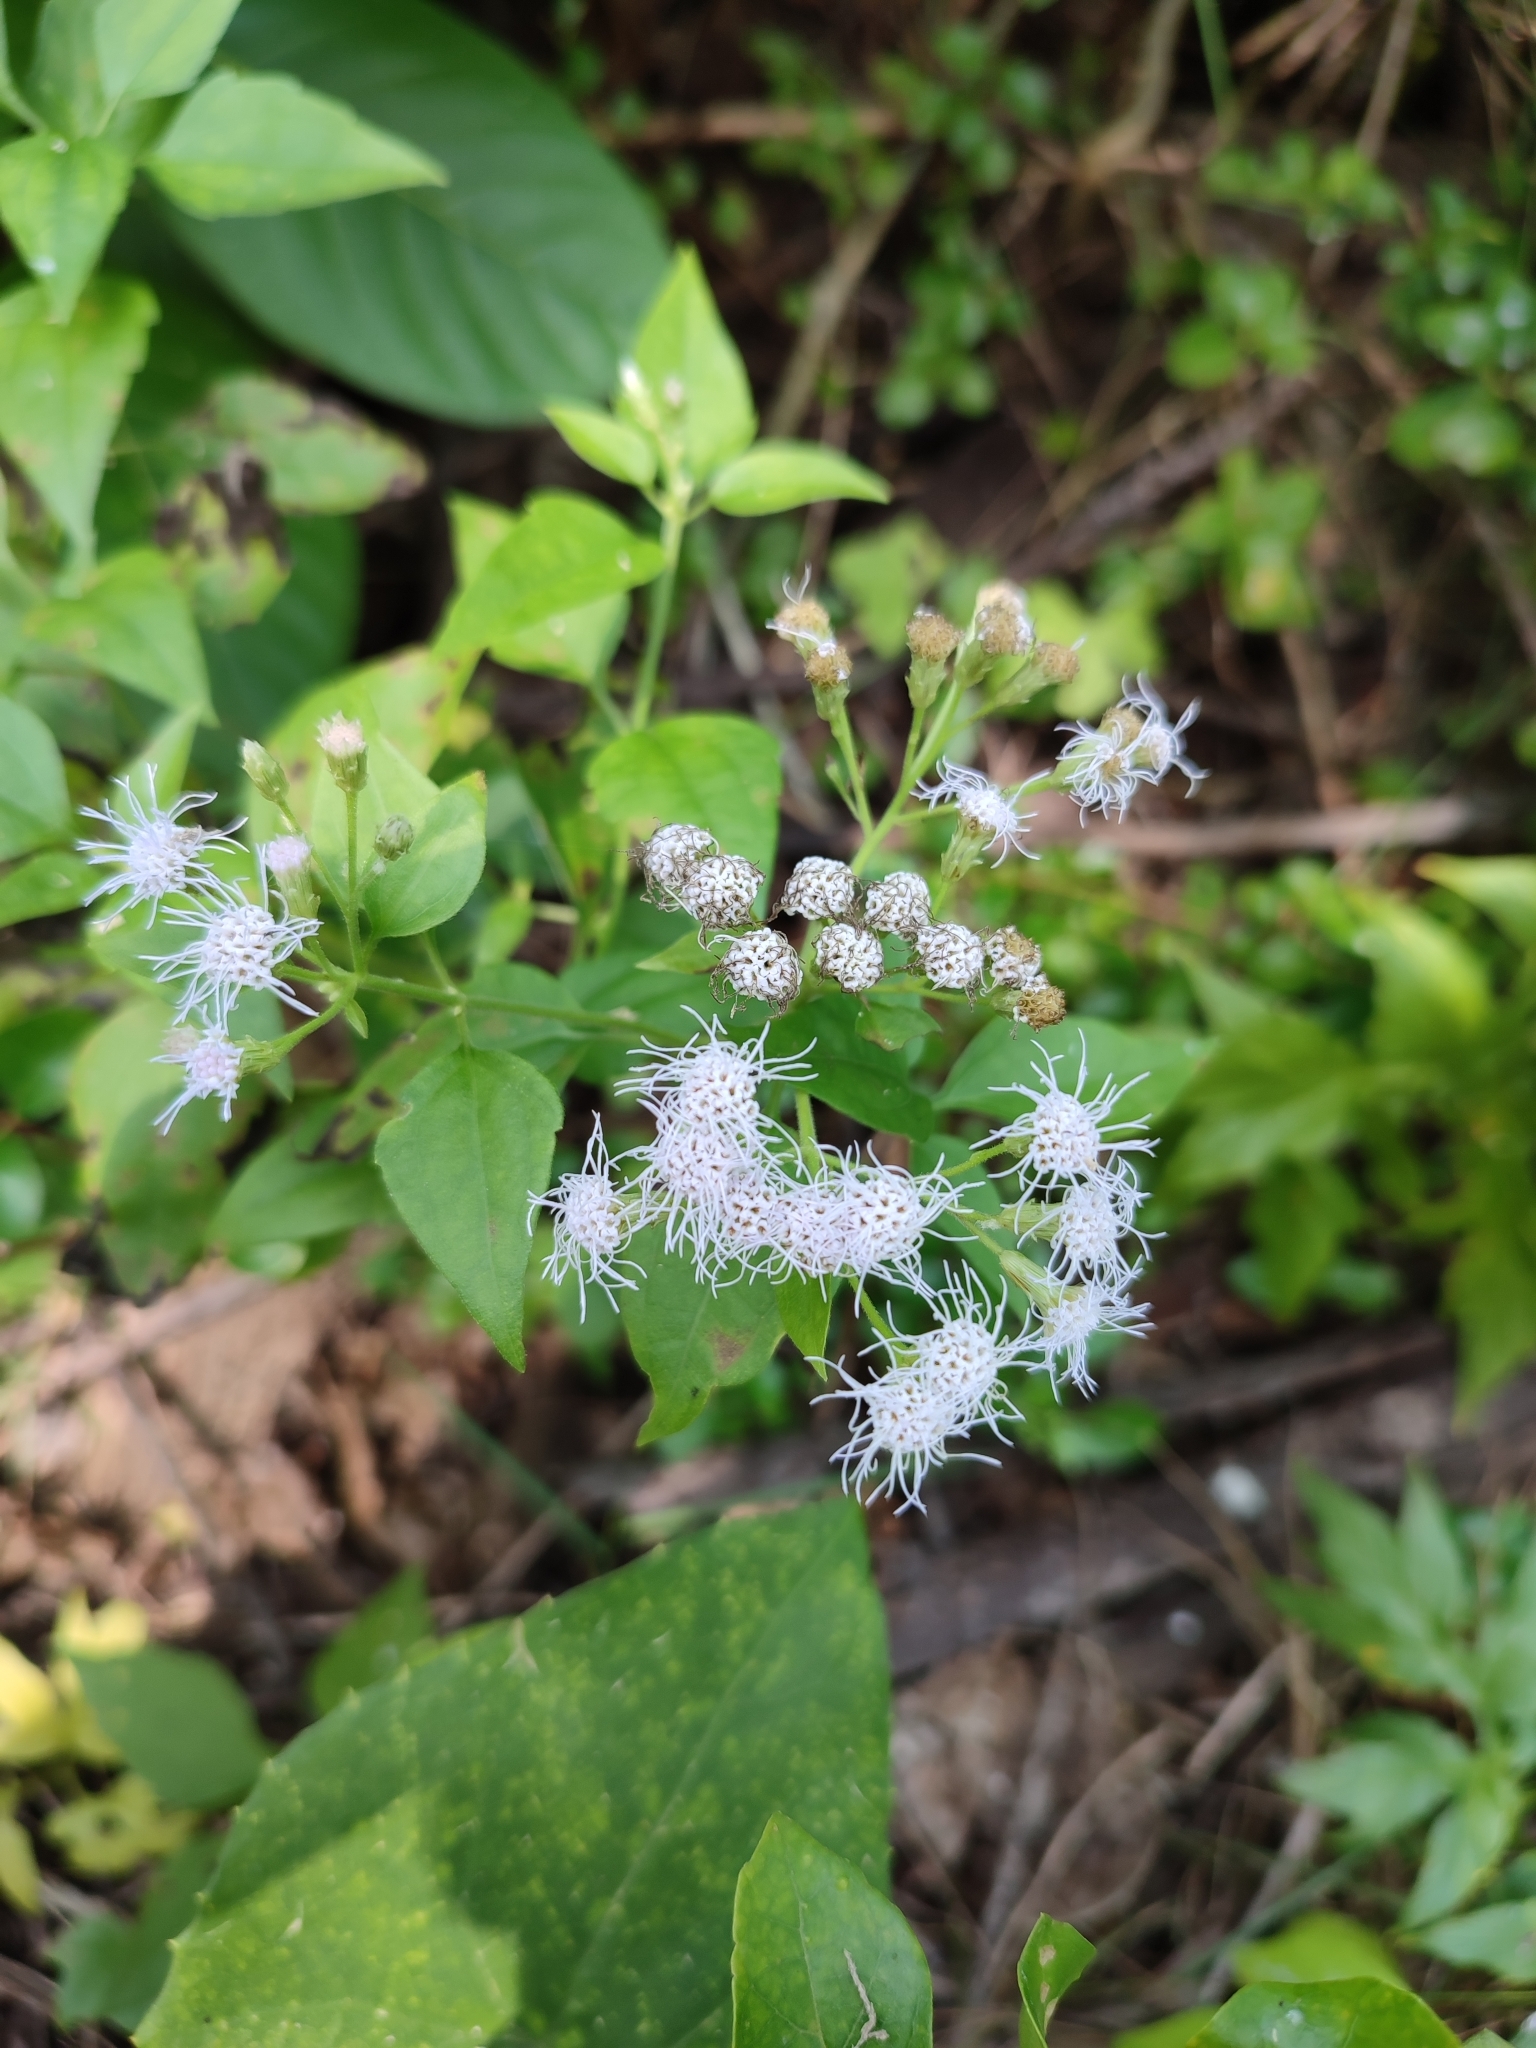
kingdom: Plantae
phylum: Tracheophyta
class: Magnoliopsida
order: Asterales
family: Asteraceae
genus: Chromolaena
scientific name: Chromolaena odorata
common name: Siamweed
